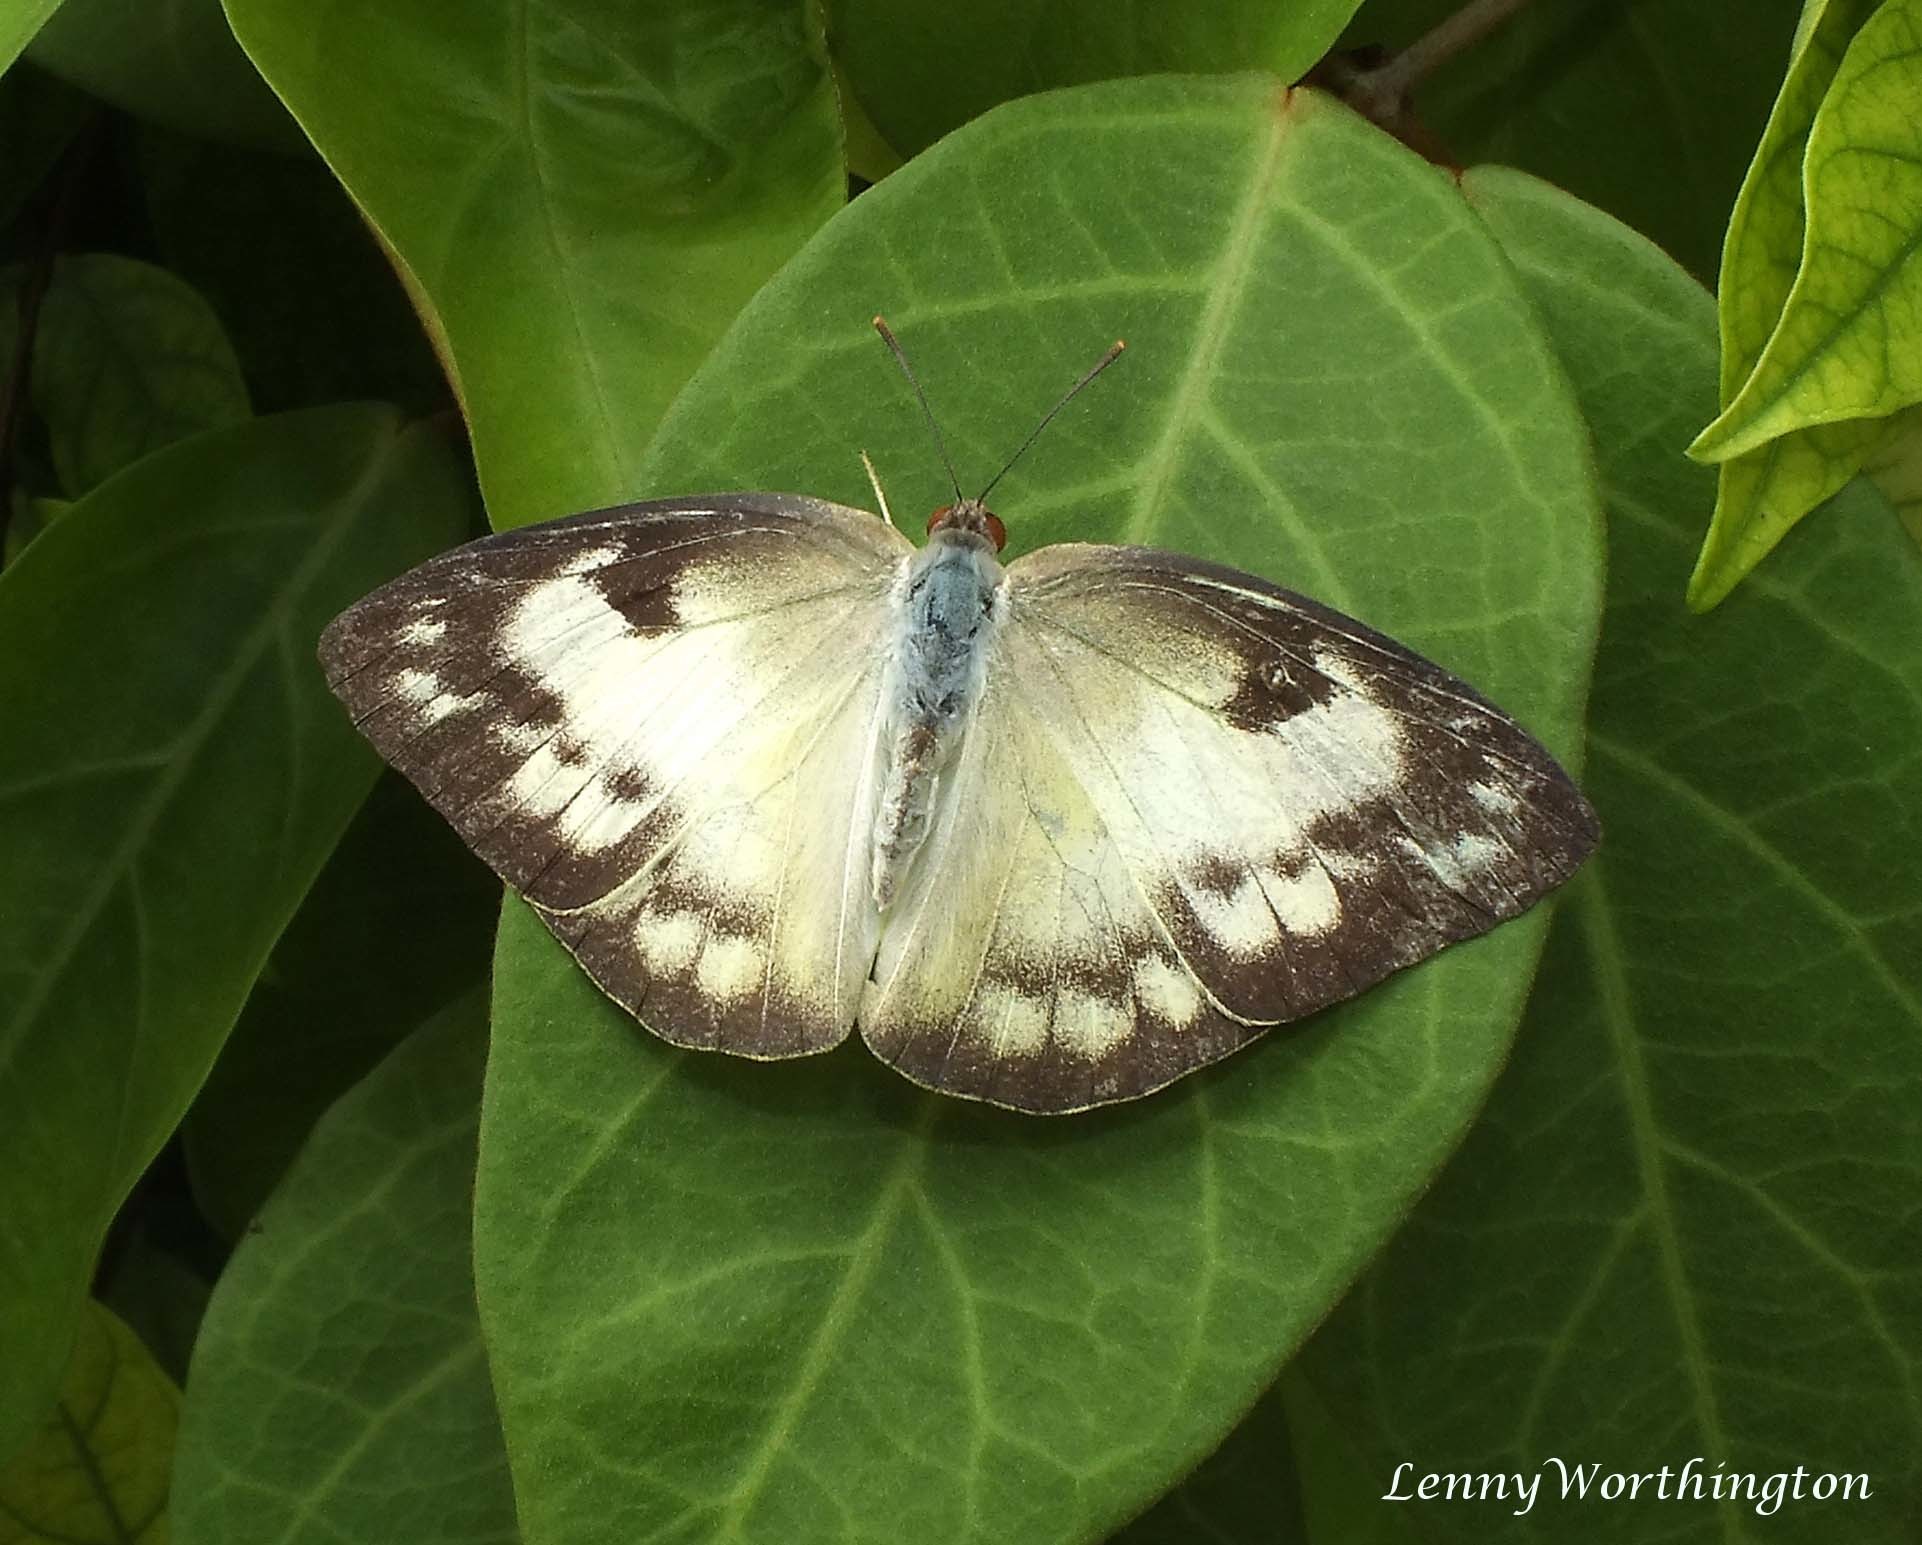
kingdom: Animalia
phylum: Arthropoda
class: Insecta
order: Lepidoptera
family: Pieridae
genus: Catopsilia
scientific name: Catopsilia pomona
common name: Common emigrant
